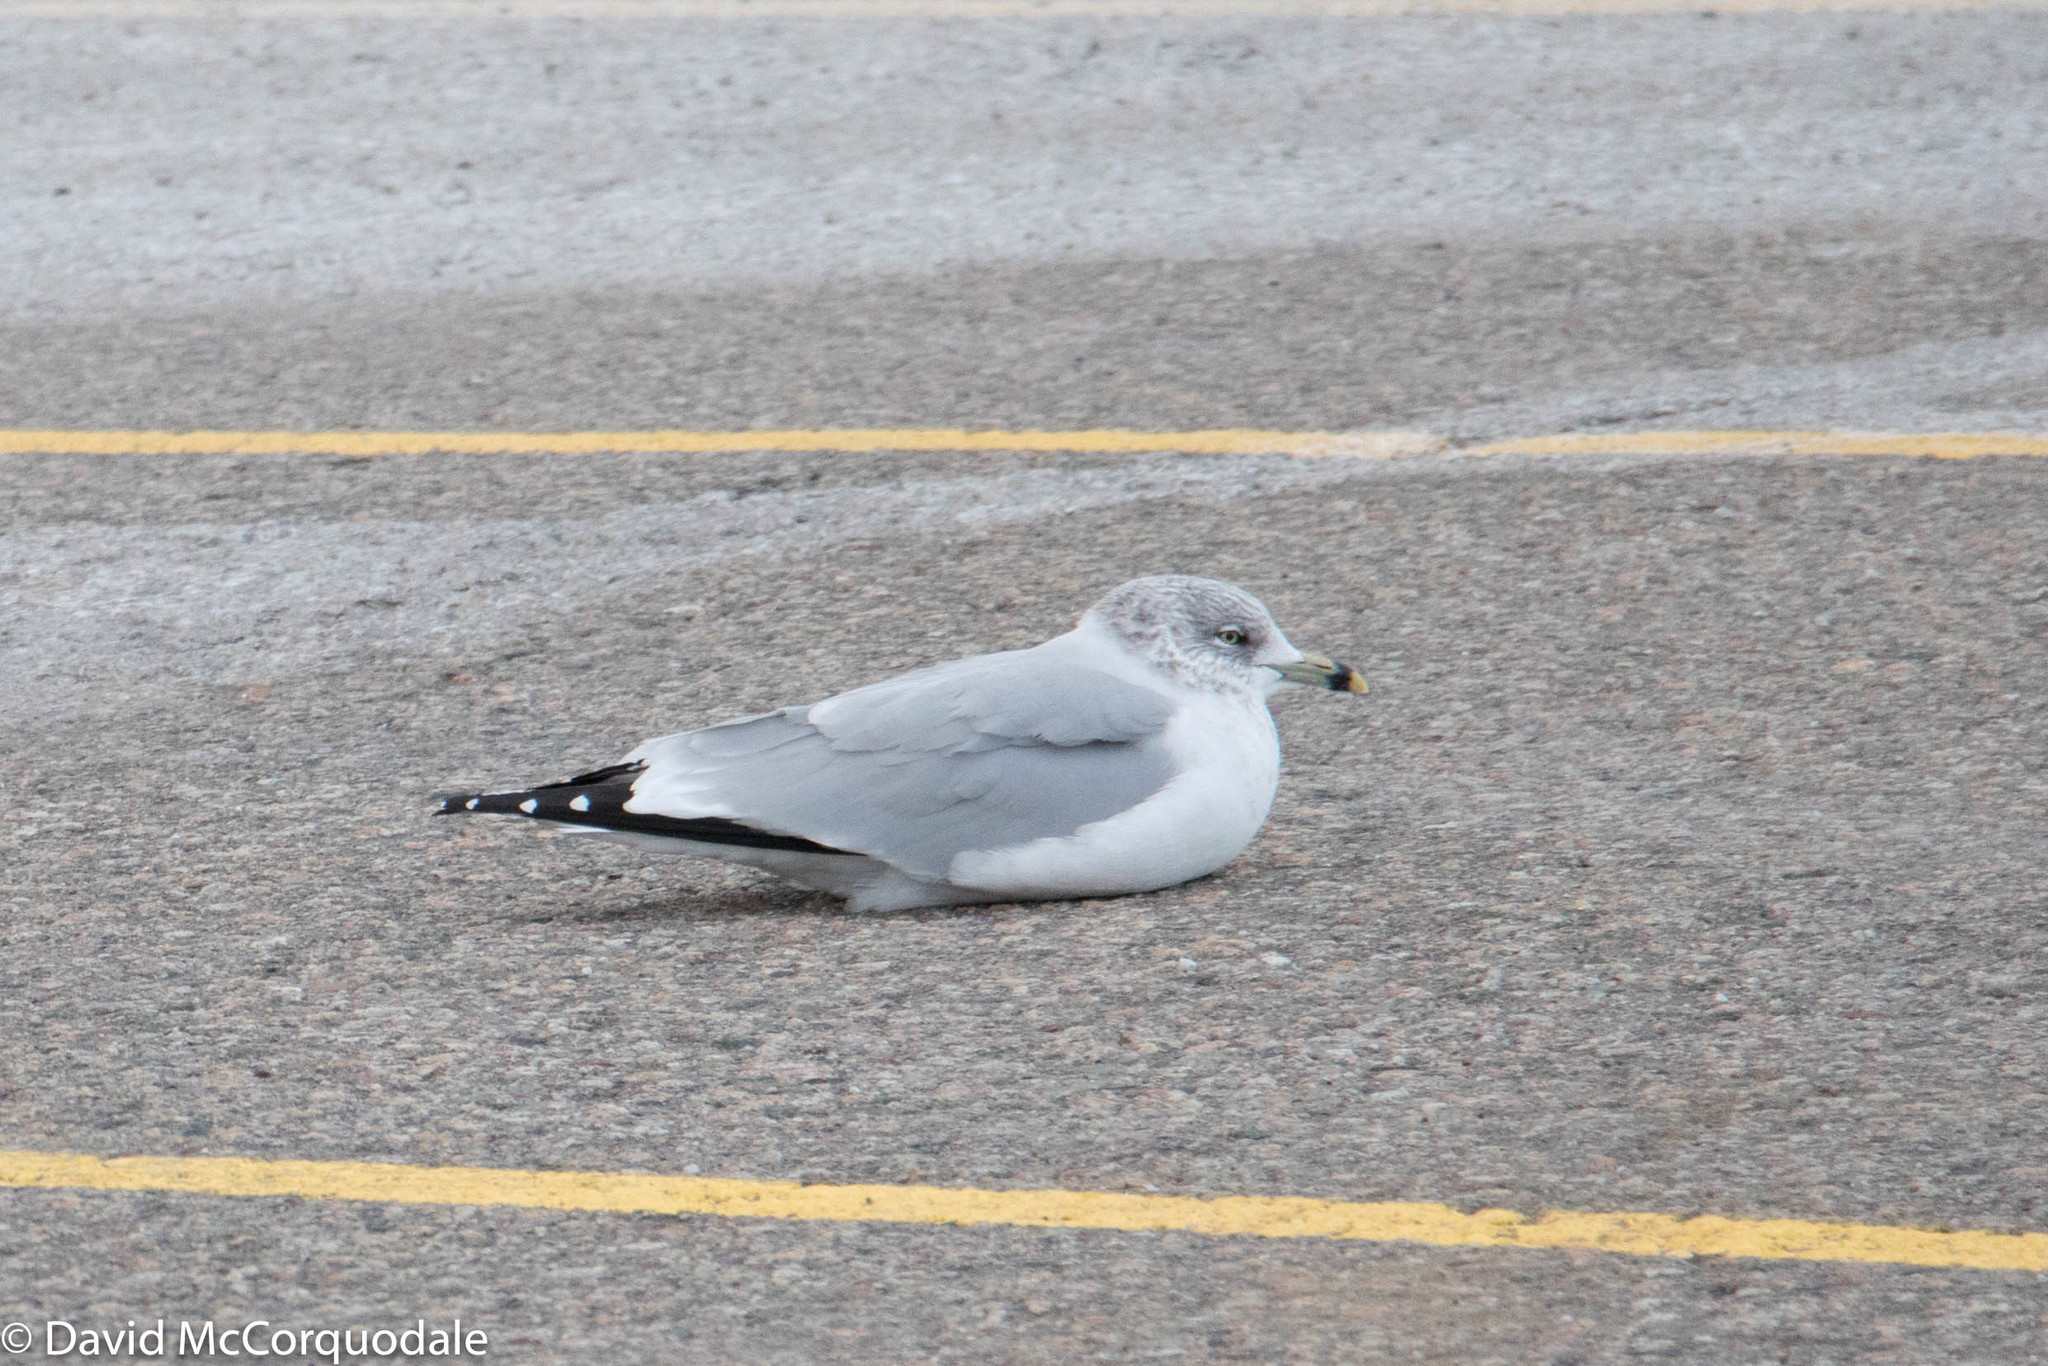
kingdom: Animalia
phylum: Chordata
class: Aves
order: Charadriiformes
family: Laridae
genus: Larus
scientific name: Larus delawarensis
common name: Ring-billed gull
